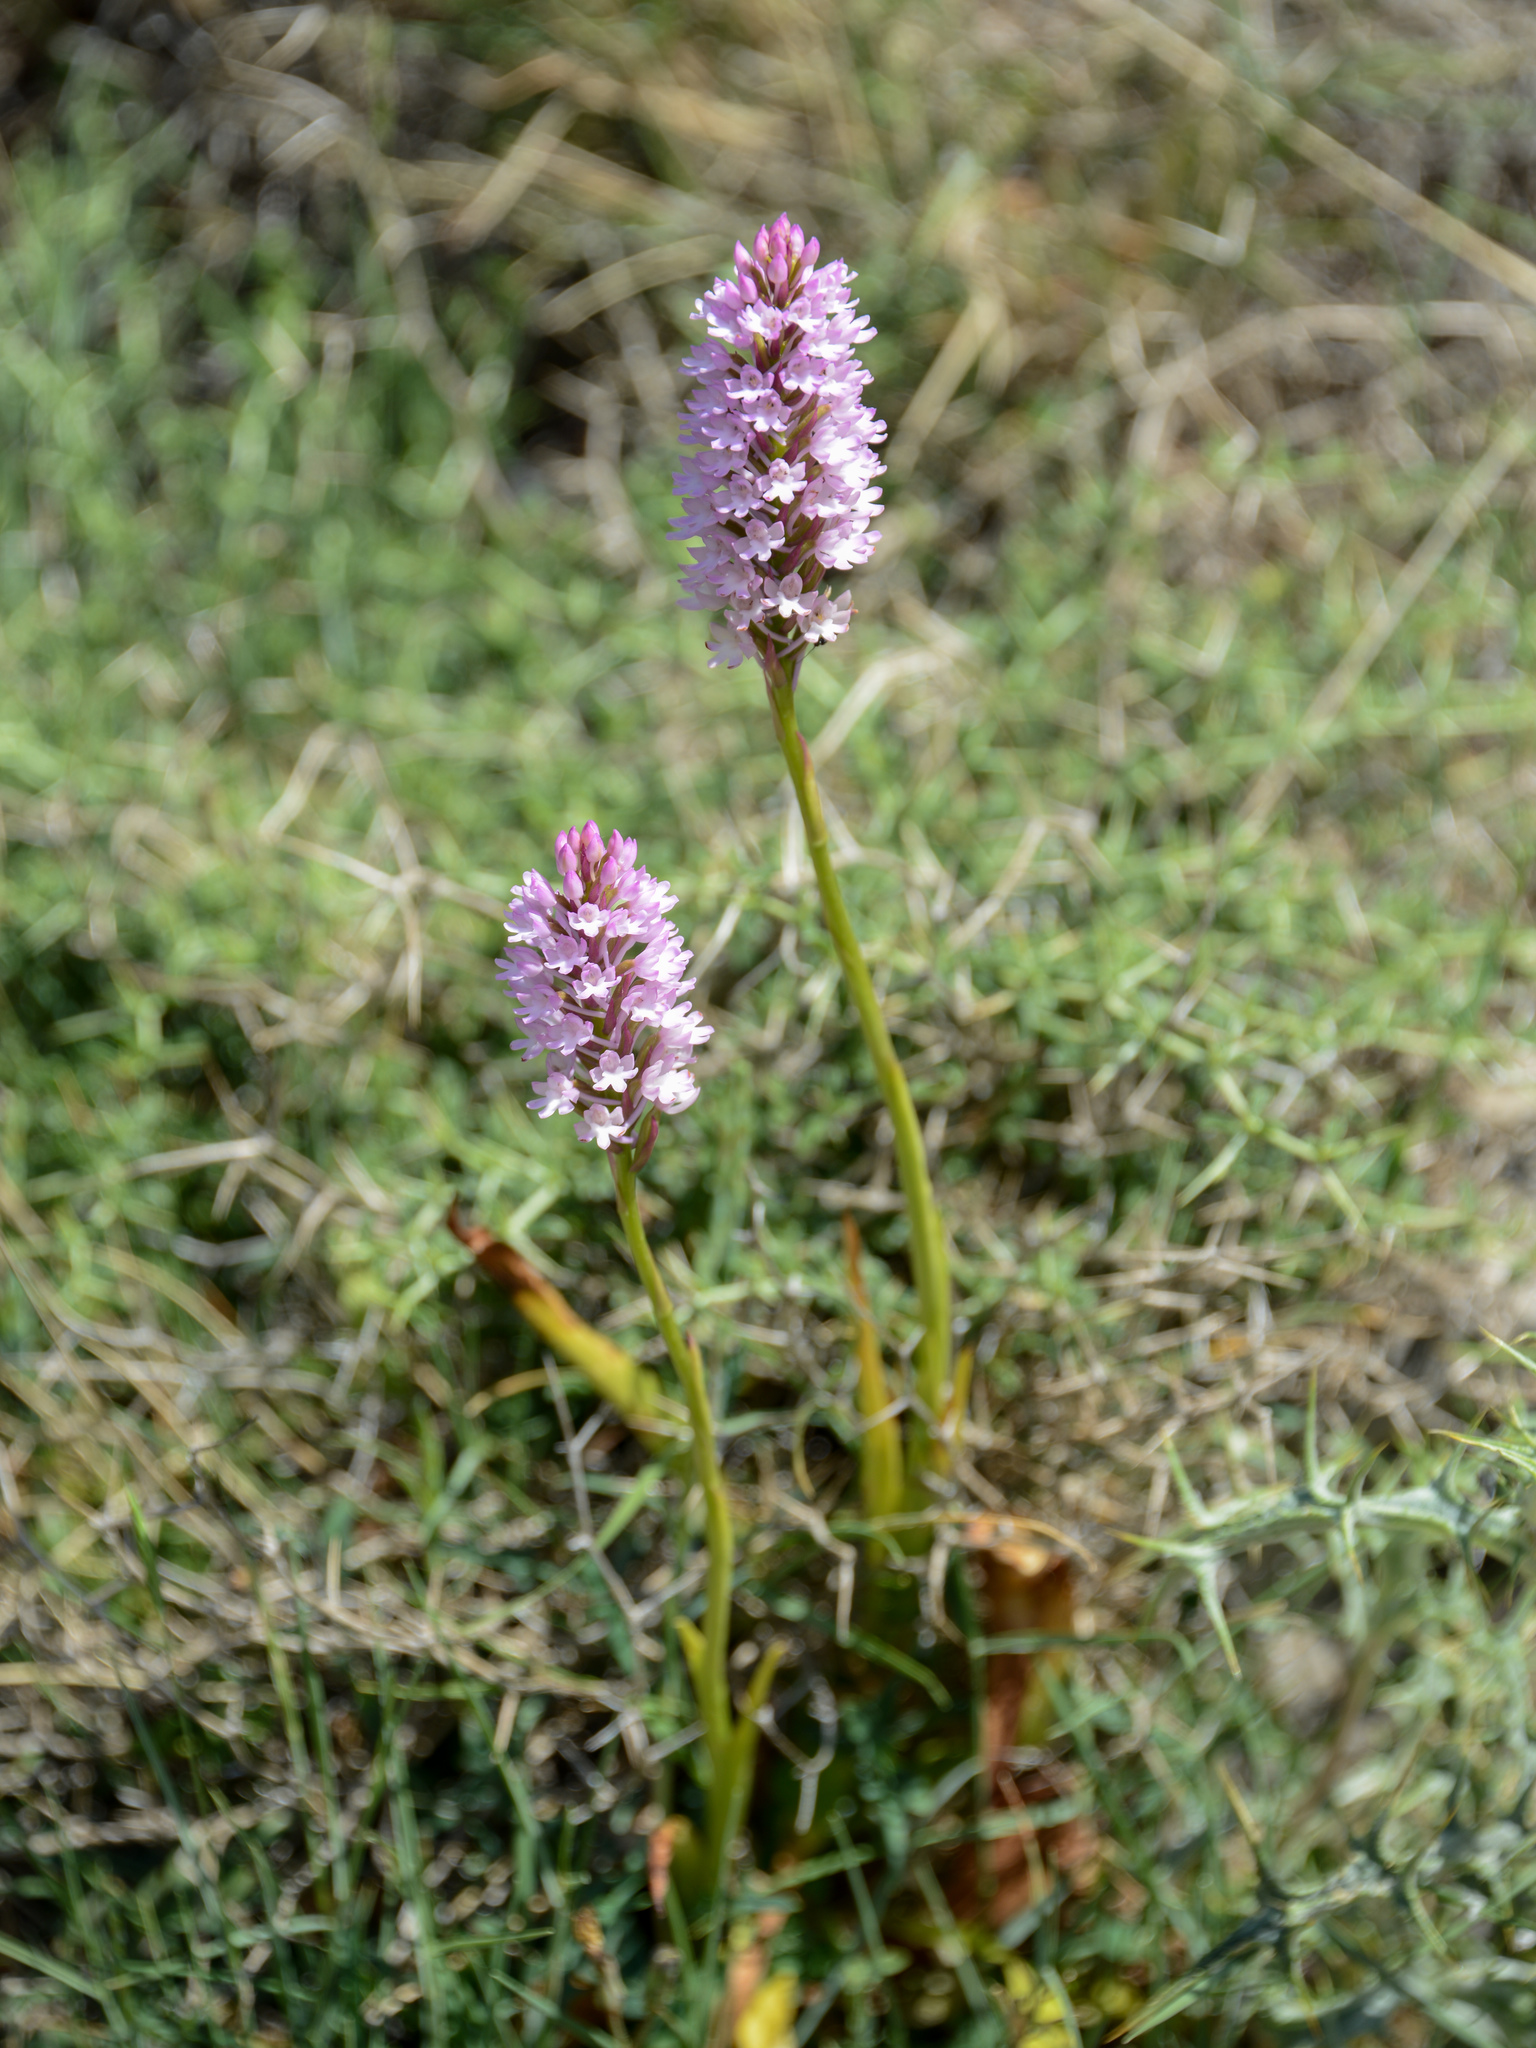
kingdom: Plantae
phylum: Tracheophyta
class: Liliopsida
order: Asparagales
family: Orchidaceae
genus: Anacamptis
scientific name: Anacamptis pyramidalis
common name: Pyramidal orchid
